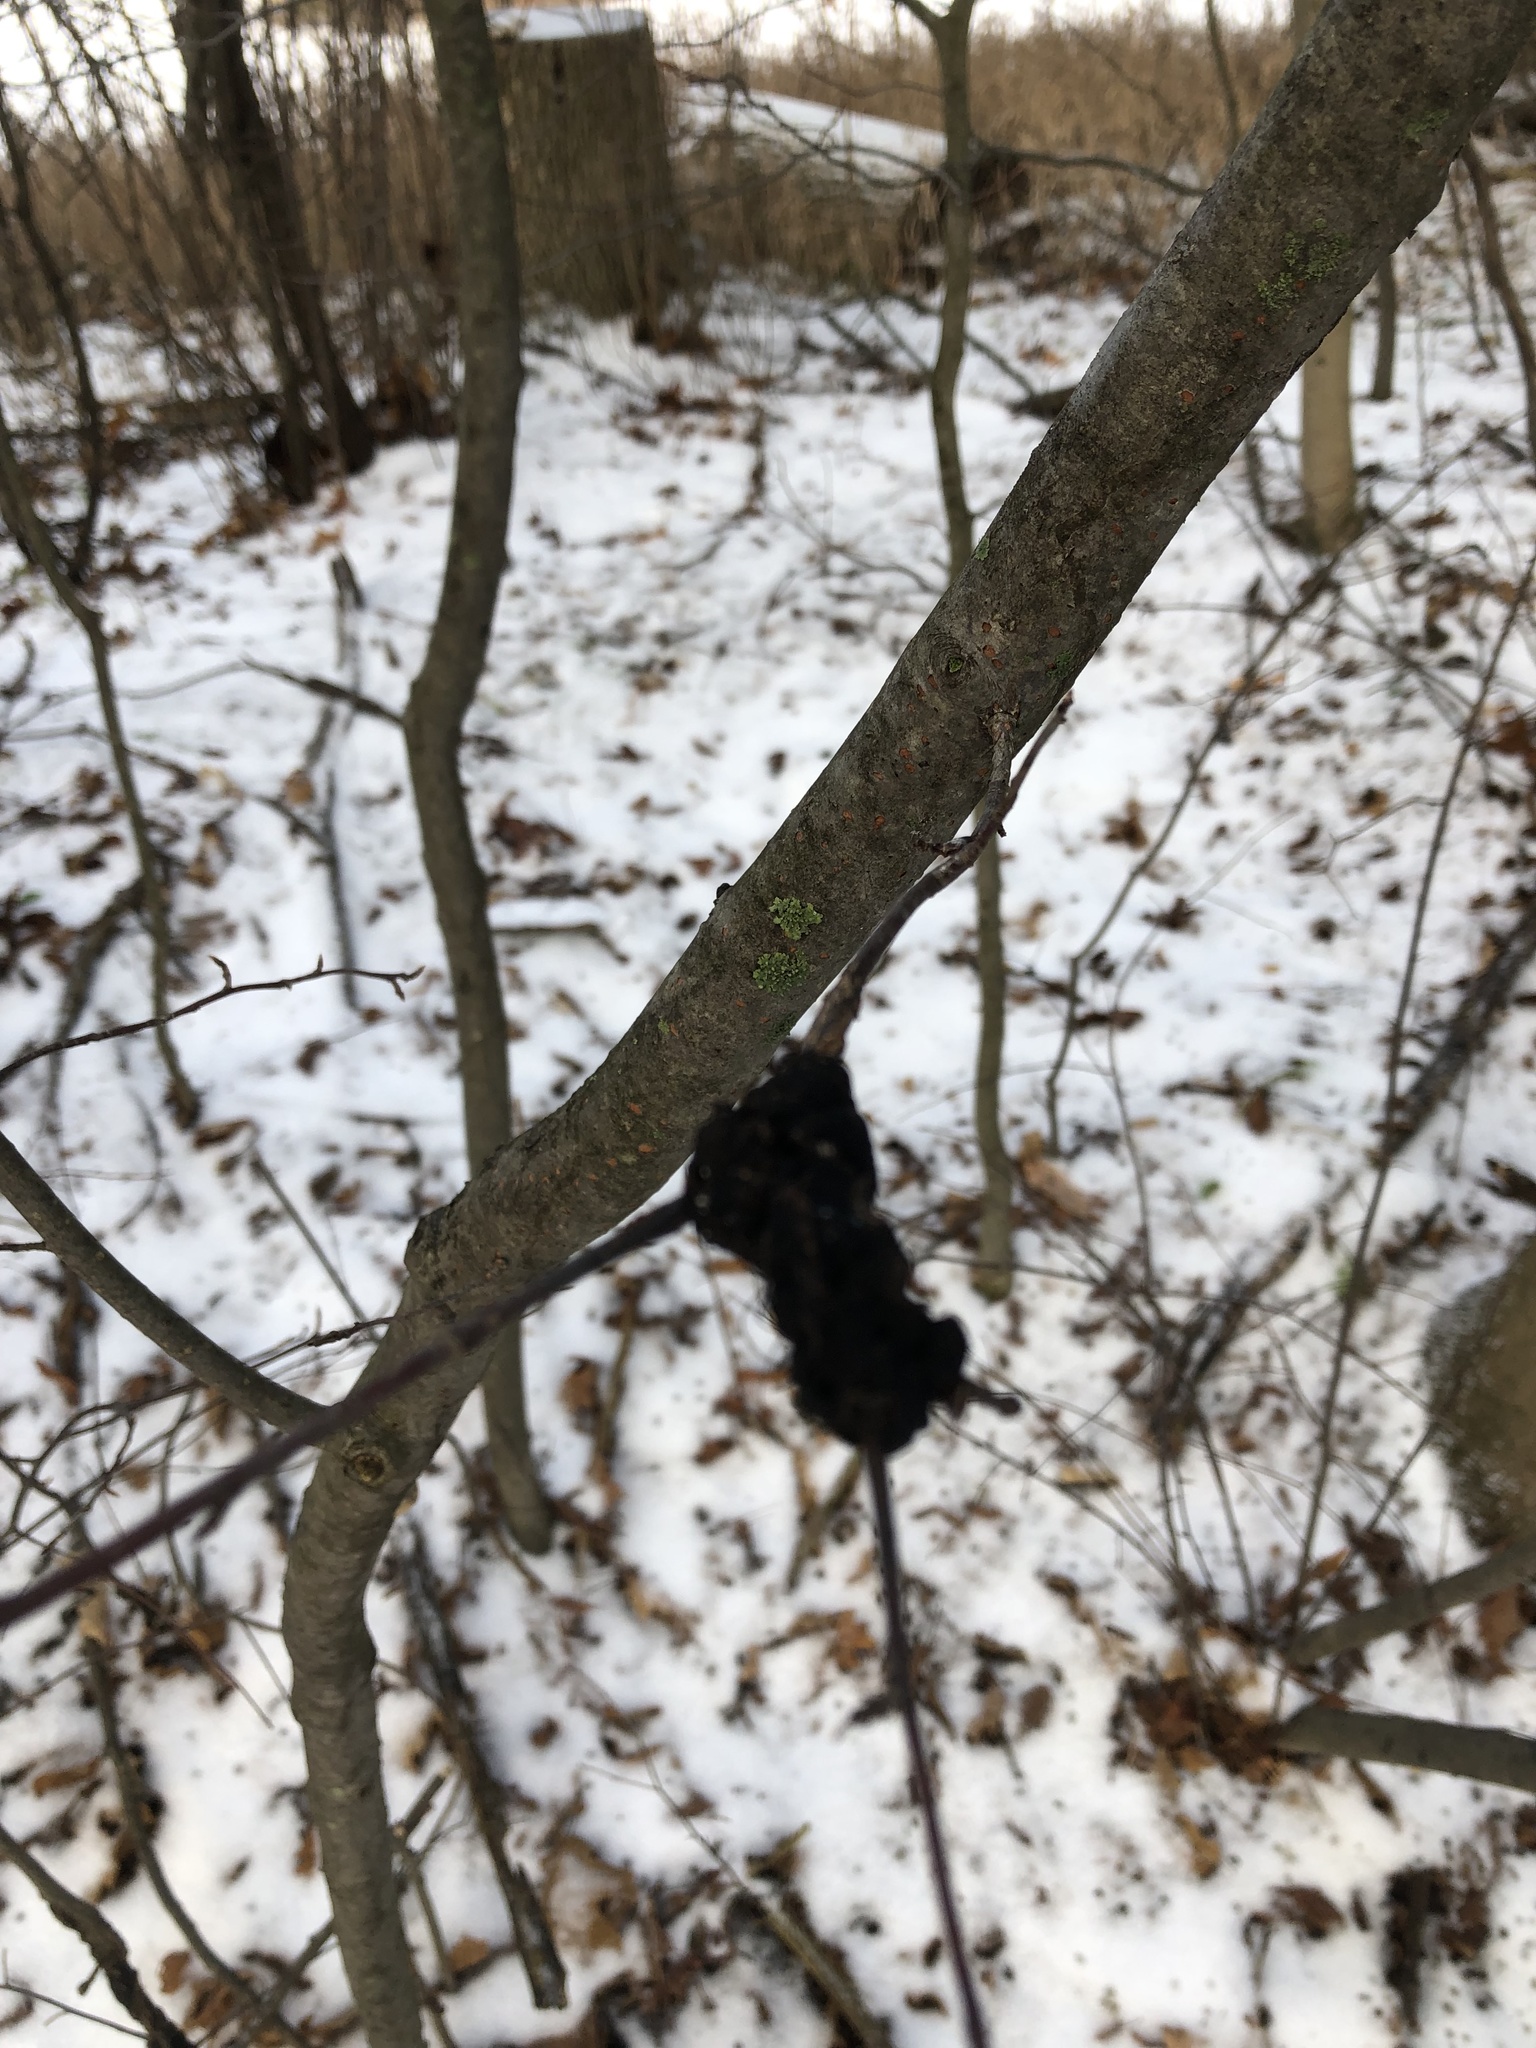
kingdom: Fungi
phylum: Ascomycota
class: Dothideomycetes
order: Venturiales
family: Venturiaceae
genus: Apiosporina
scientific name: Apiosporina morbosa
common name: Black knot
